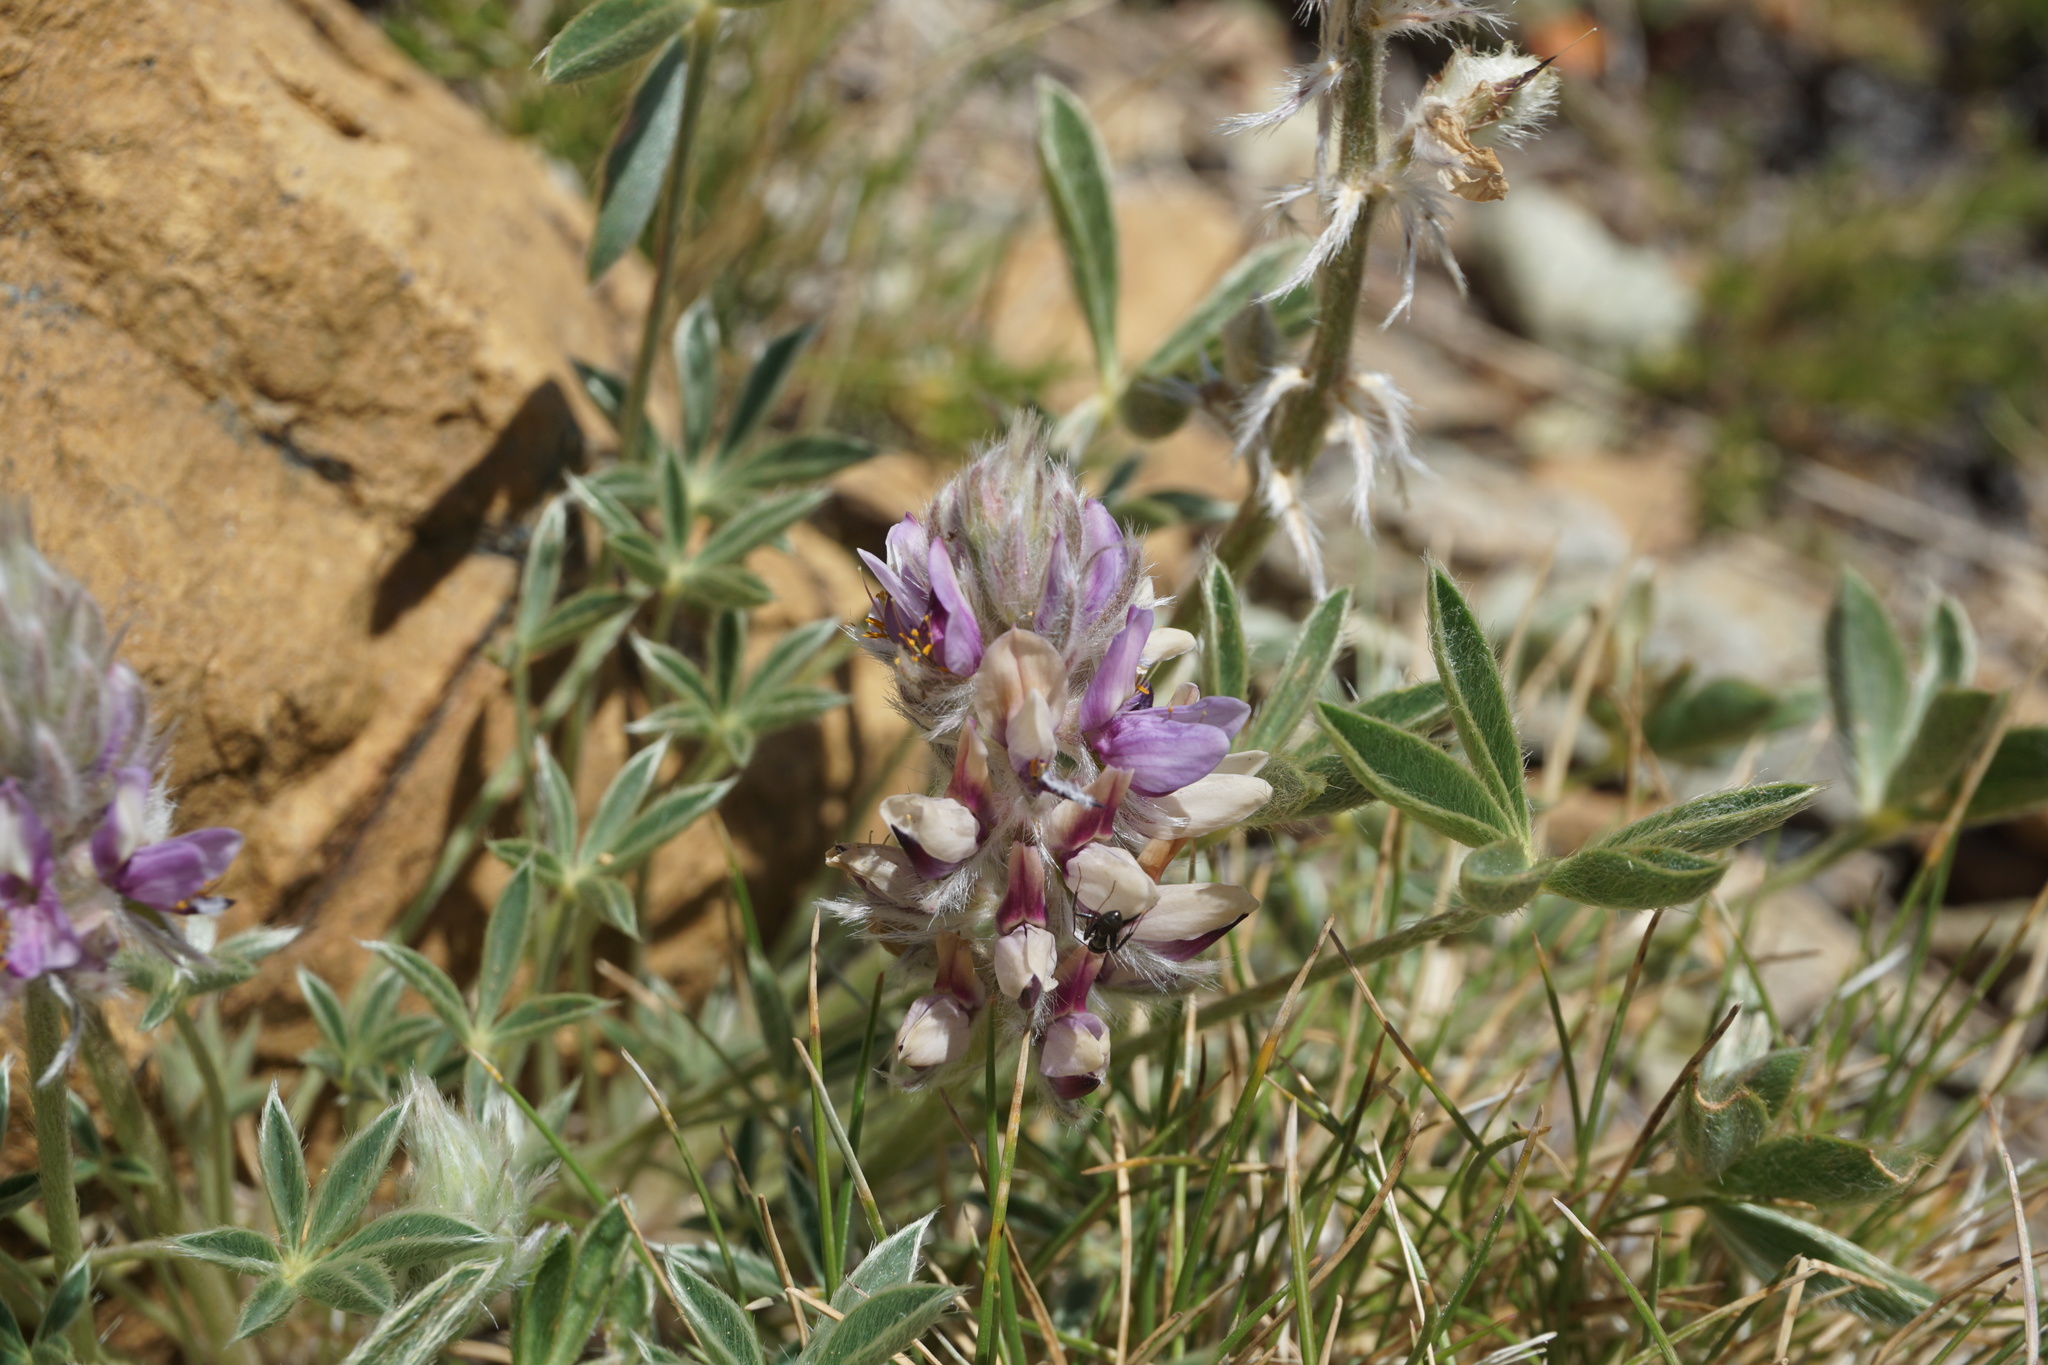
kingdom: Plantae
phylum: Tracheophyta
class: Magnoliopsida
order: Fabales
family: Fabaceae
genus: Lupinus
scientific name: Lupinus lepidus
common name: Prairie lupine
